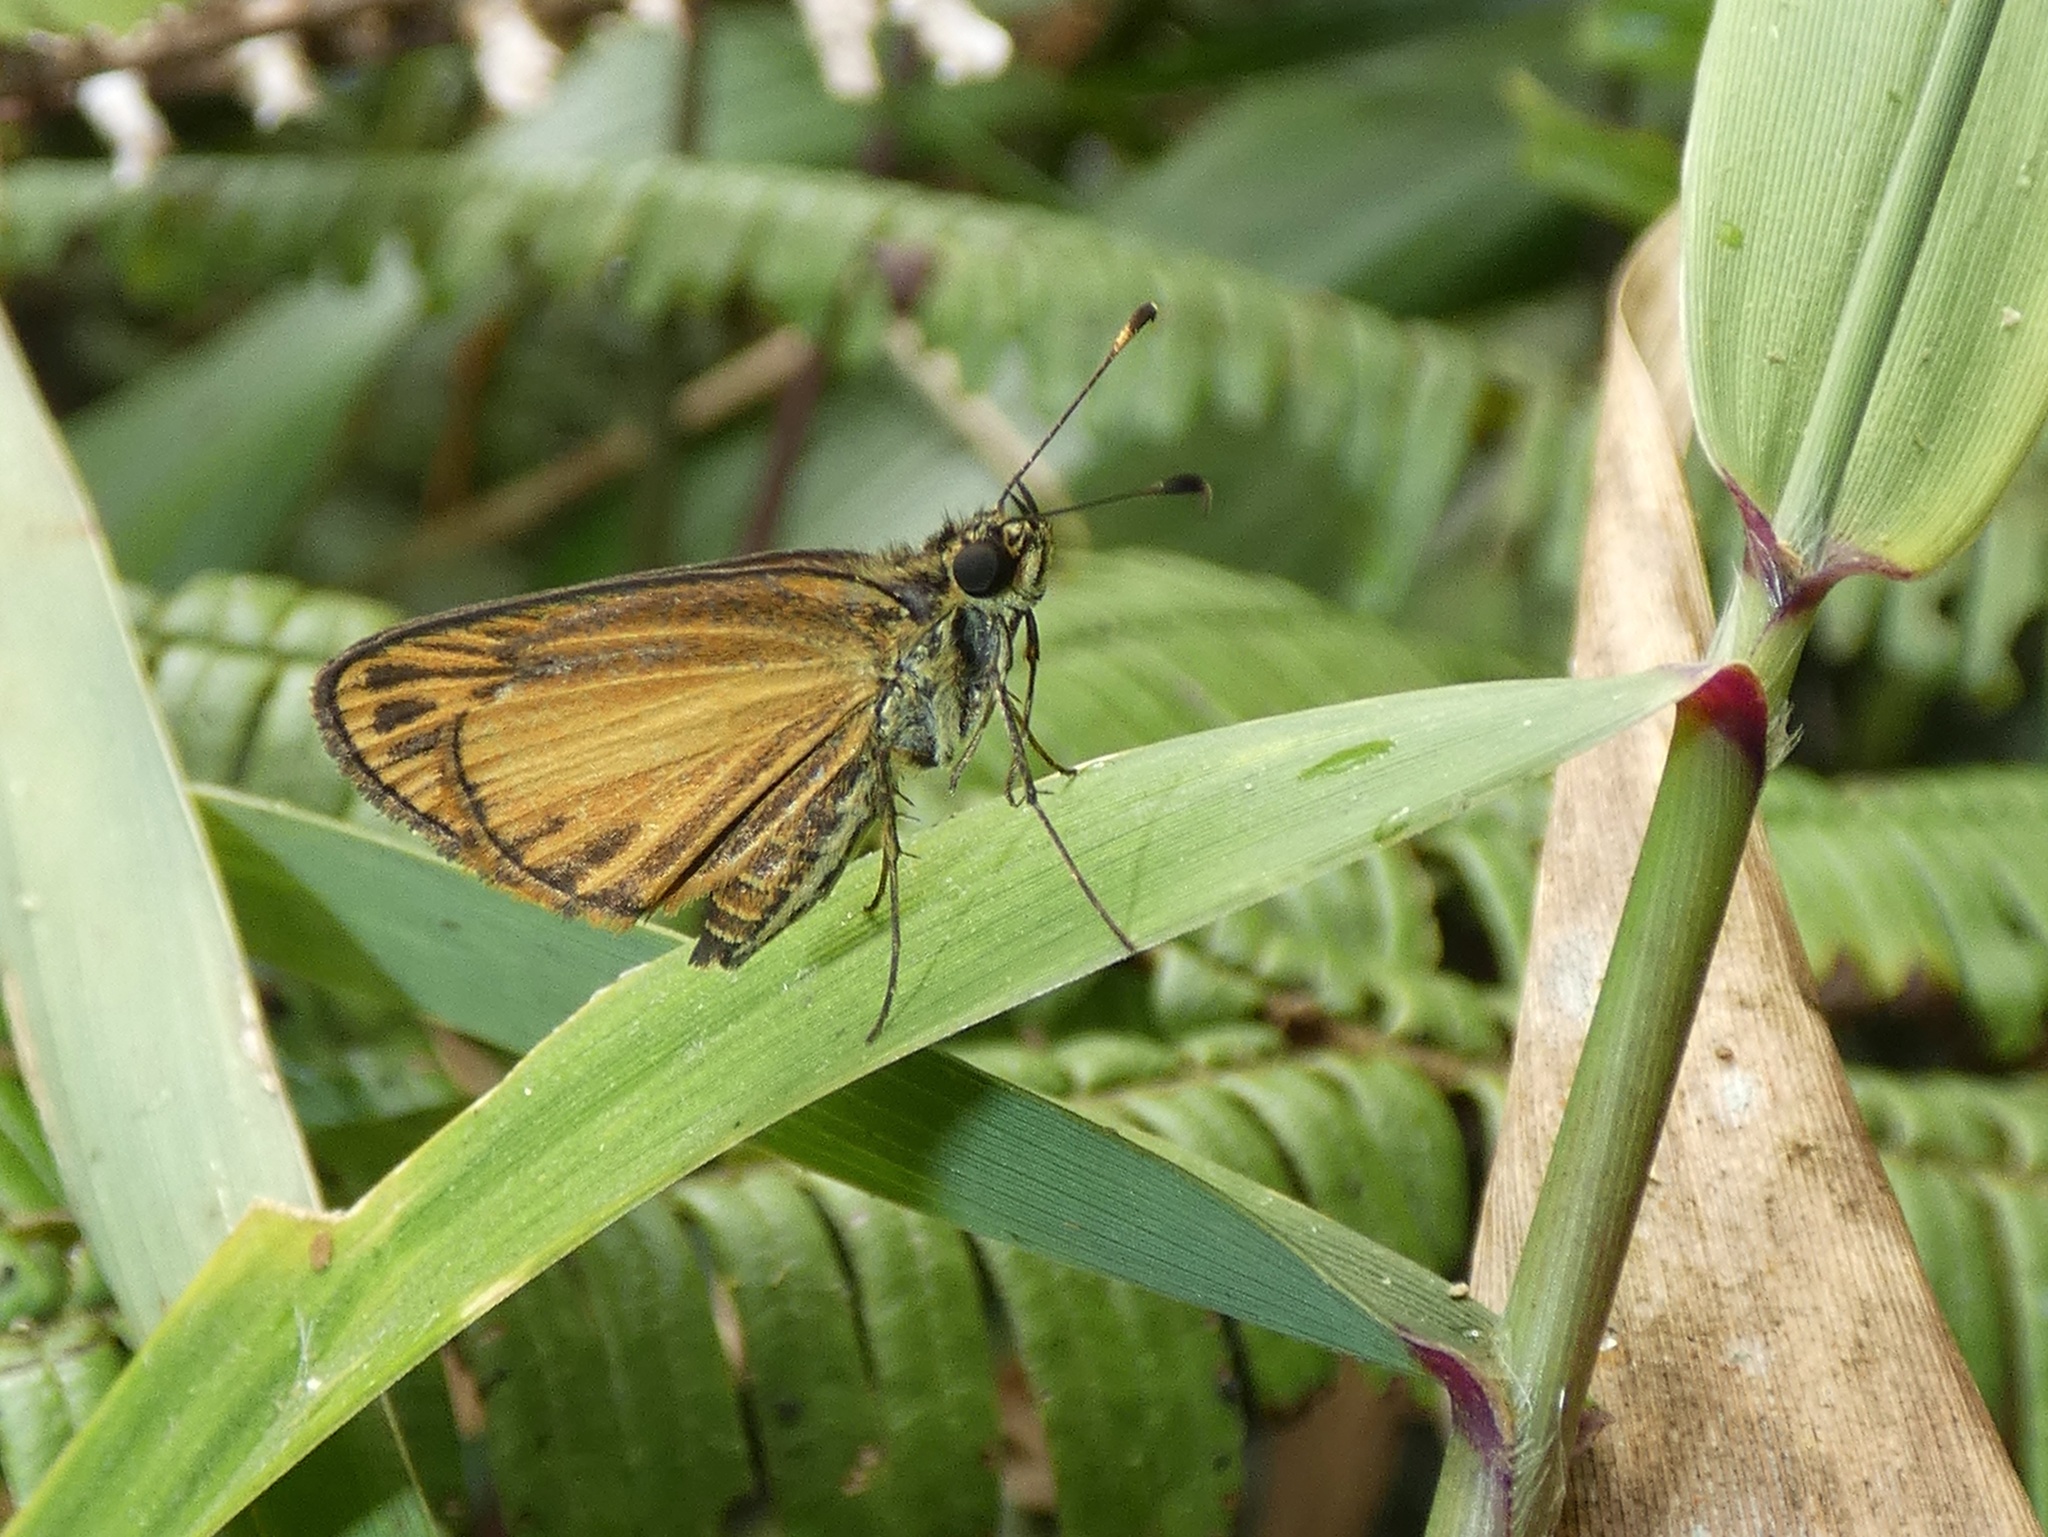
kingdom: Animalia
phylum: Arthropoda
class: Insecta
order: Lepidoptera
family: Hesperiidae
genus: Lento
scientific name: Lento hermione
